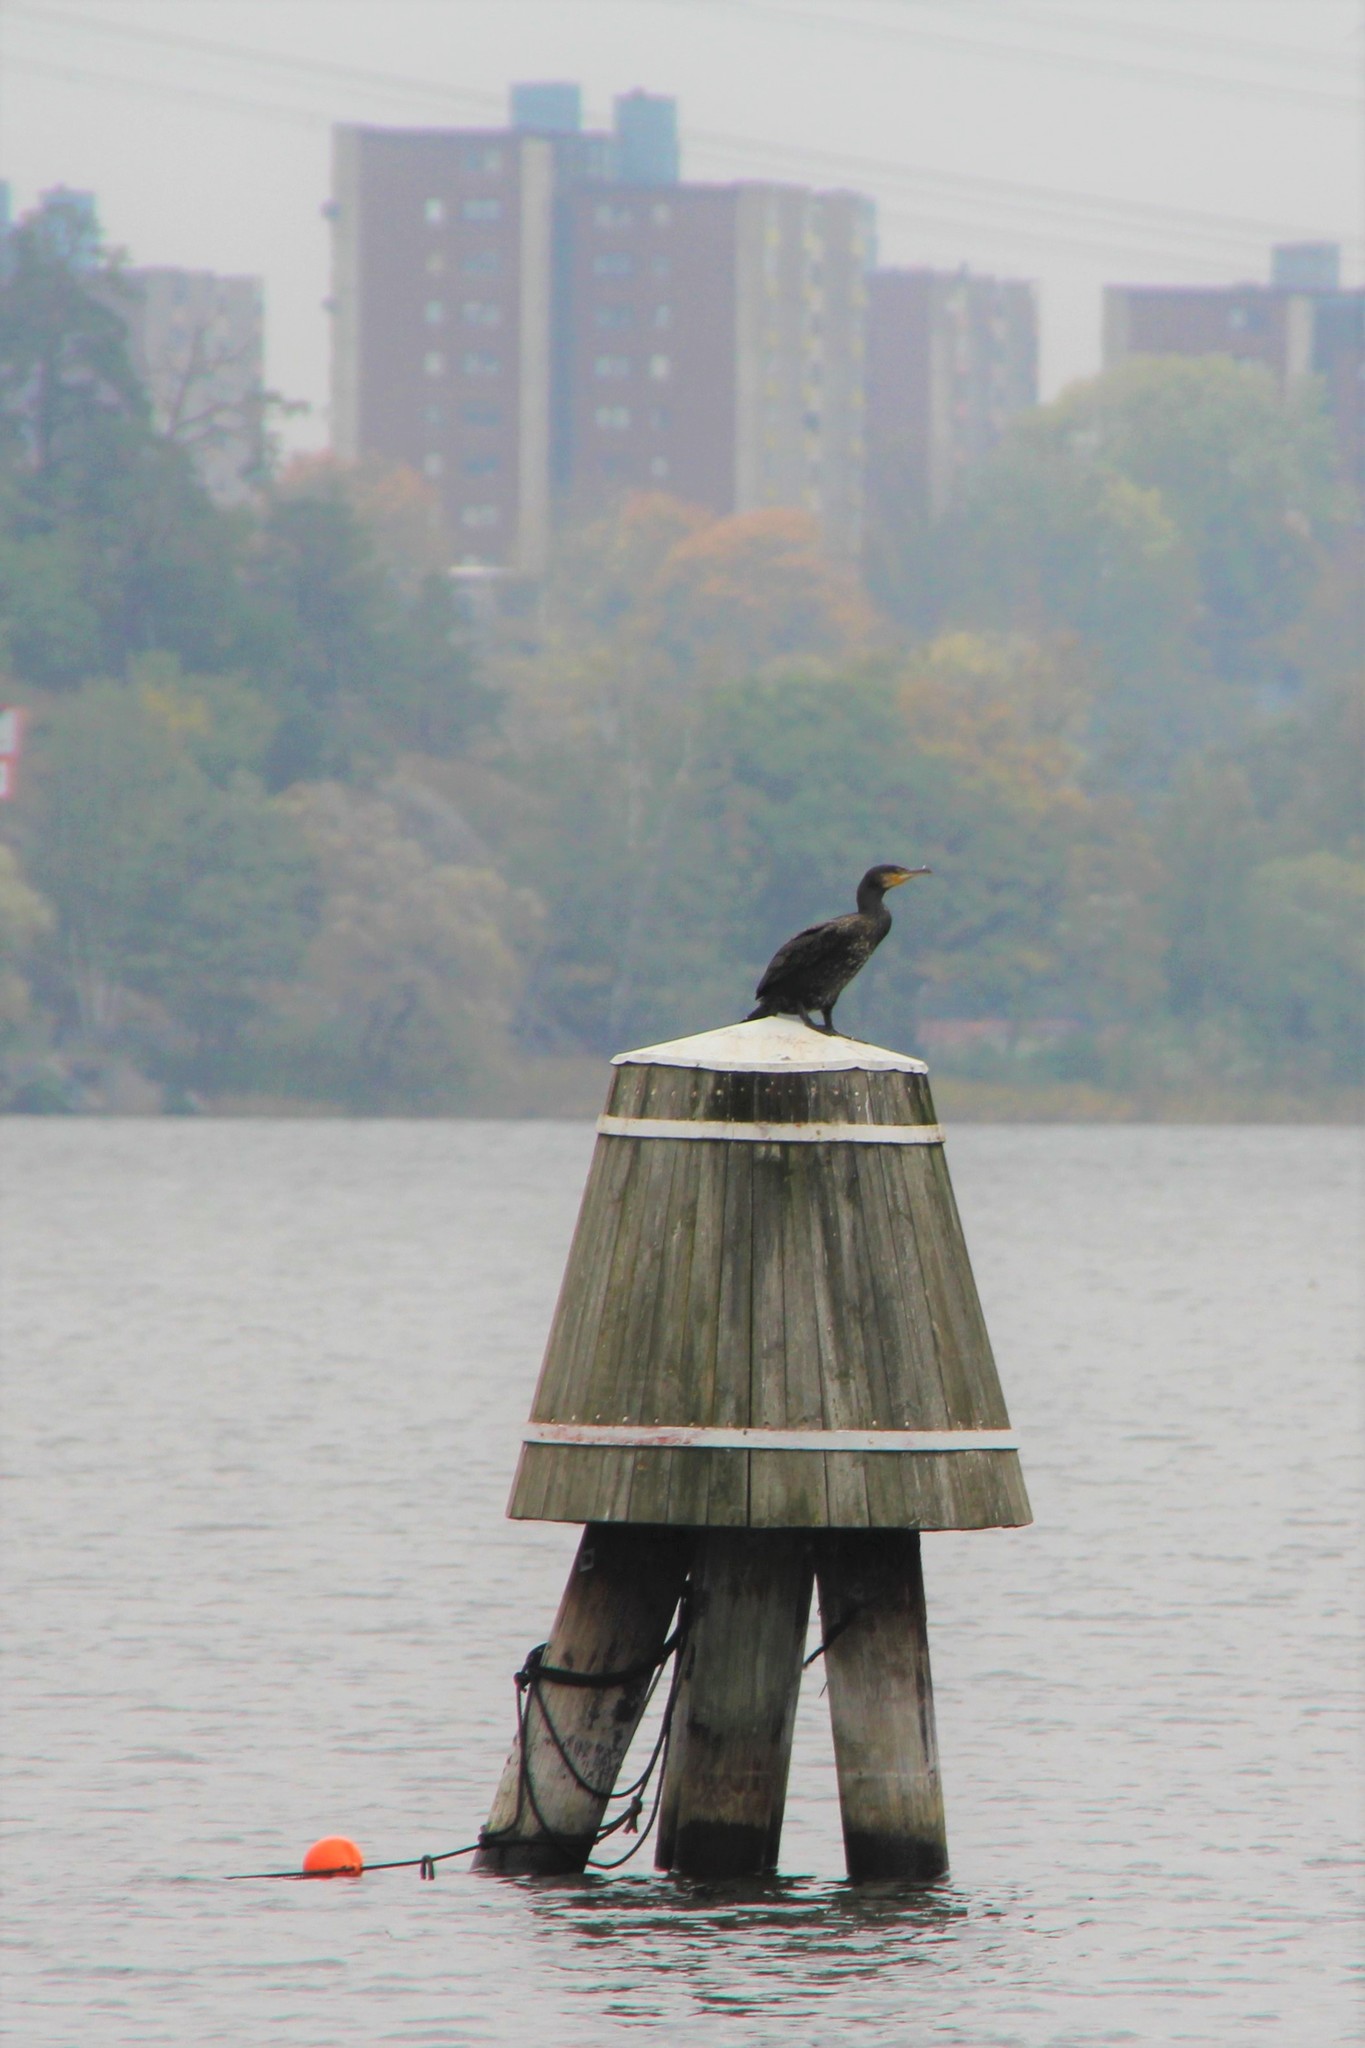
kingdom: Animalia
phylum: Chordata
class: Aves
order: Suliformes
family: Phalacrocoracidae
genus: Phalacrocorax
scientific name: Phalacrocorax carbo
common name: Great cormorant
